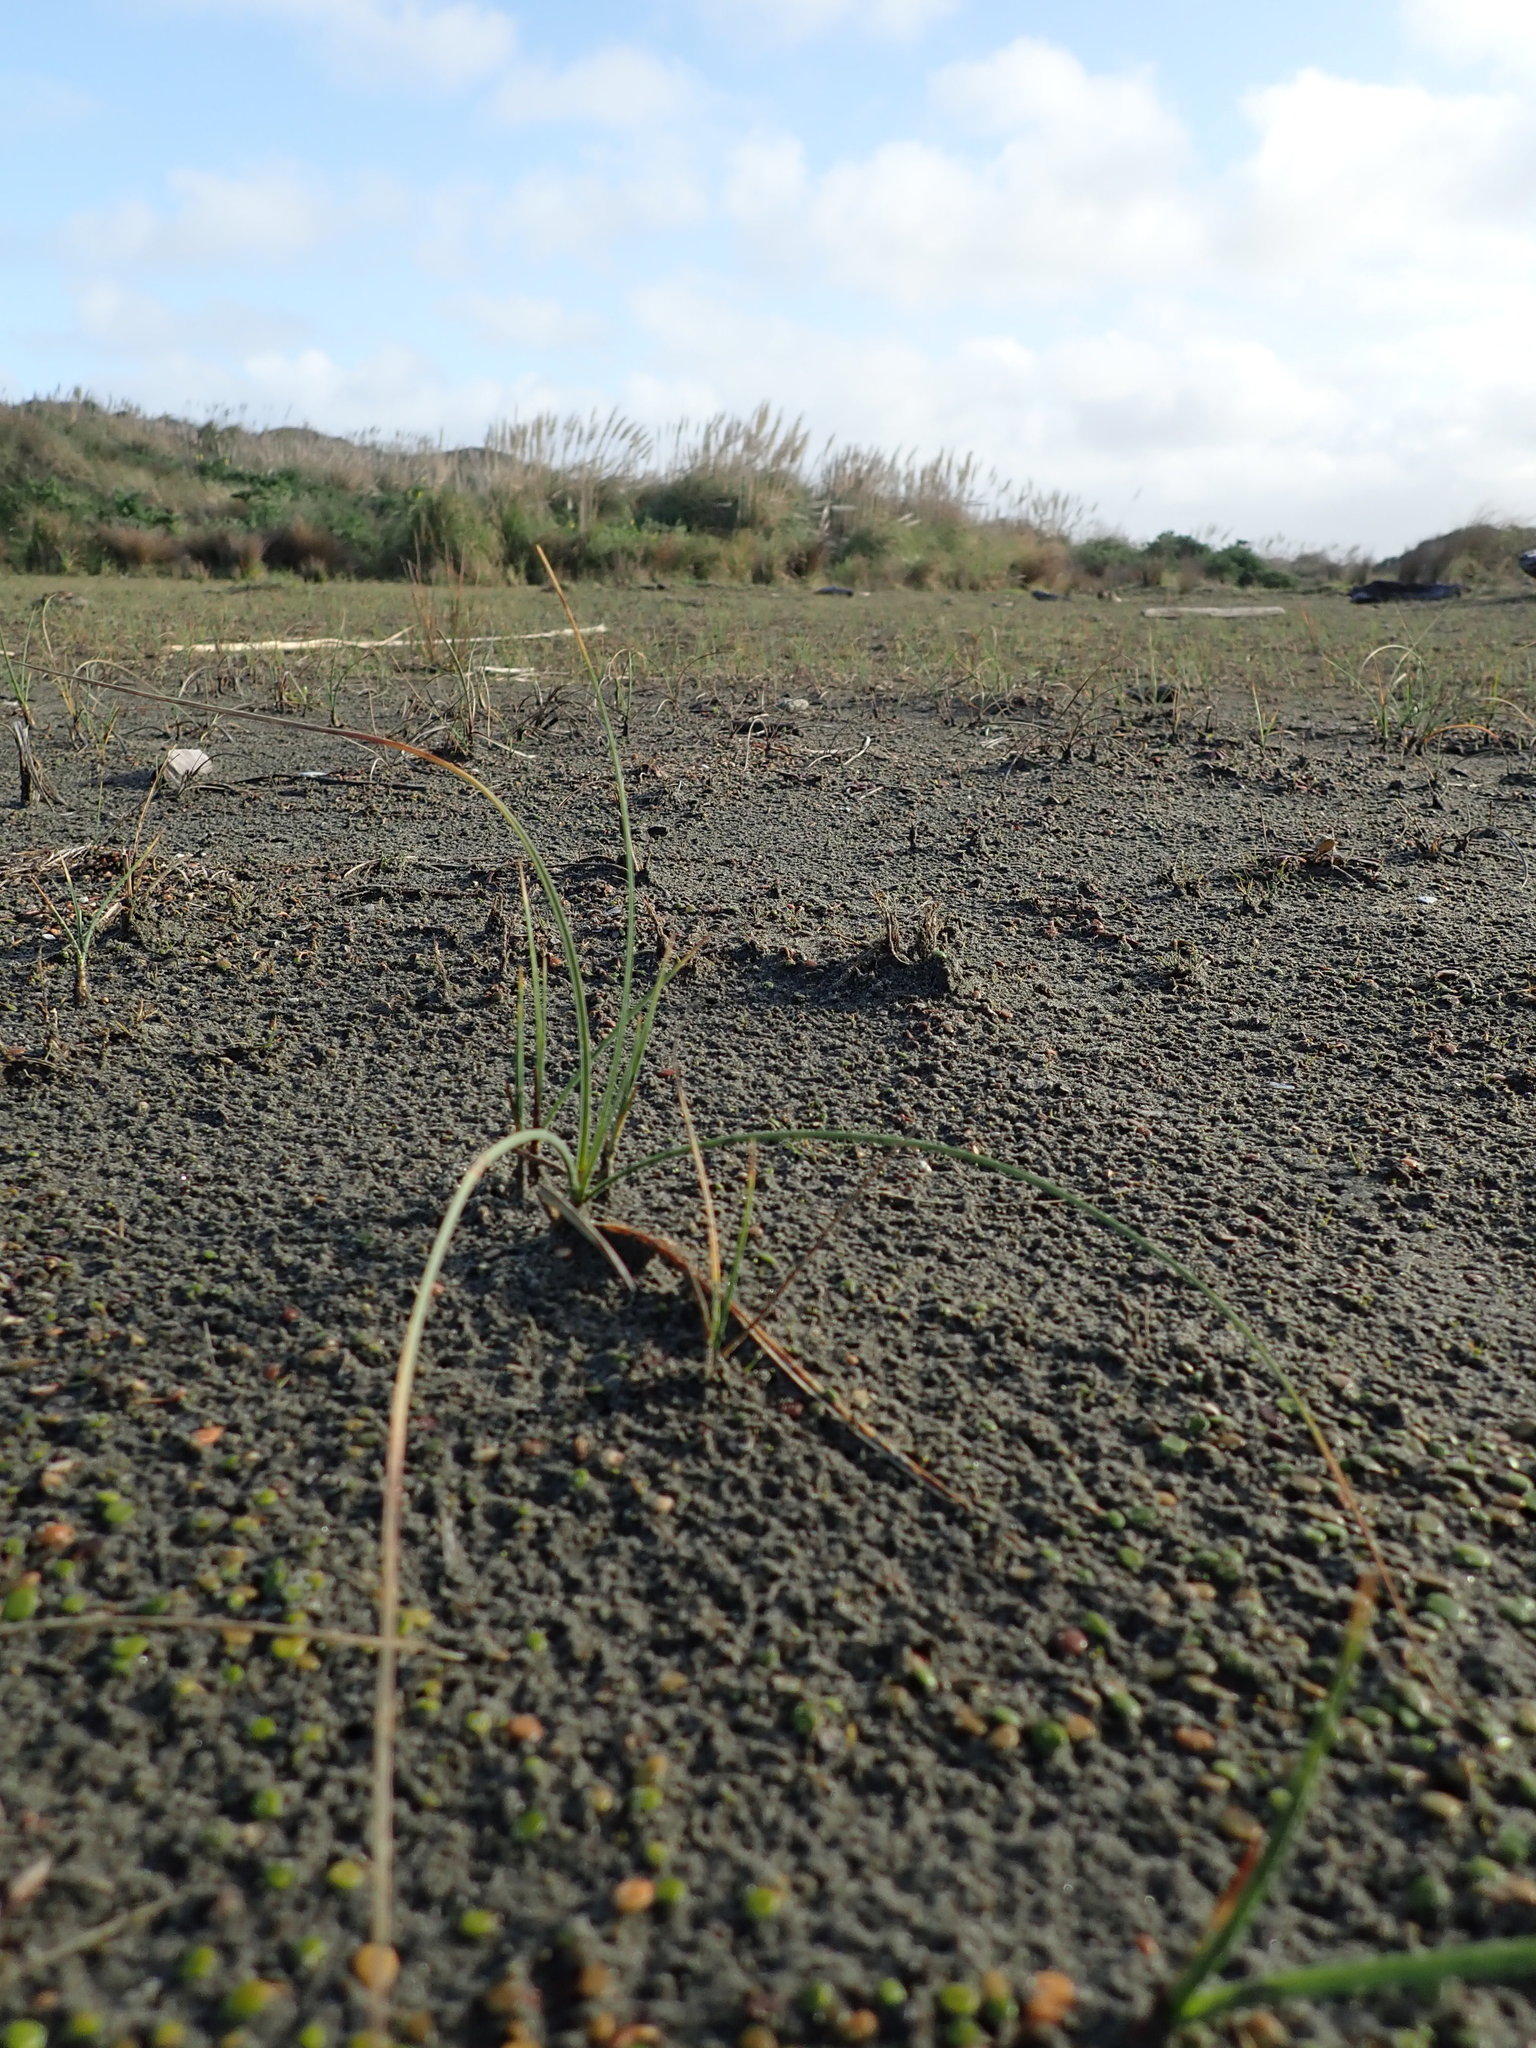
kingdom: Plantae
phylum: Tracheophyta
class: Liliopsida
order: Poales
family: Cyperaceae
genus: Carex
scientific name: Carex pumila
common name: Dwarf sedge
